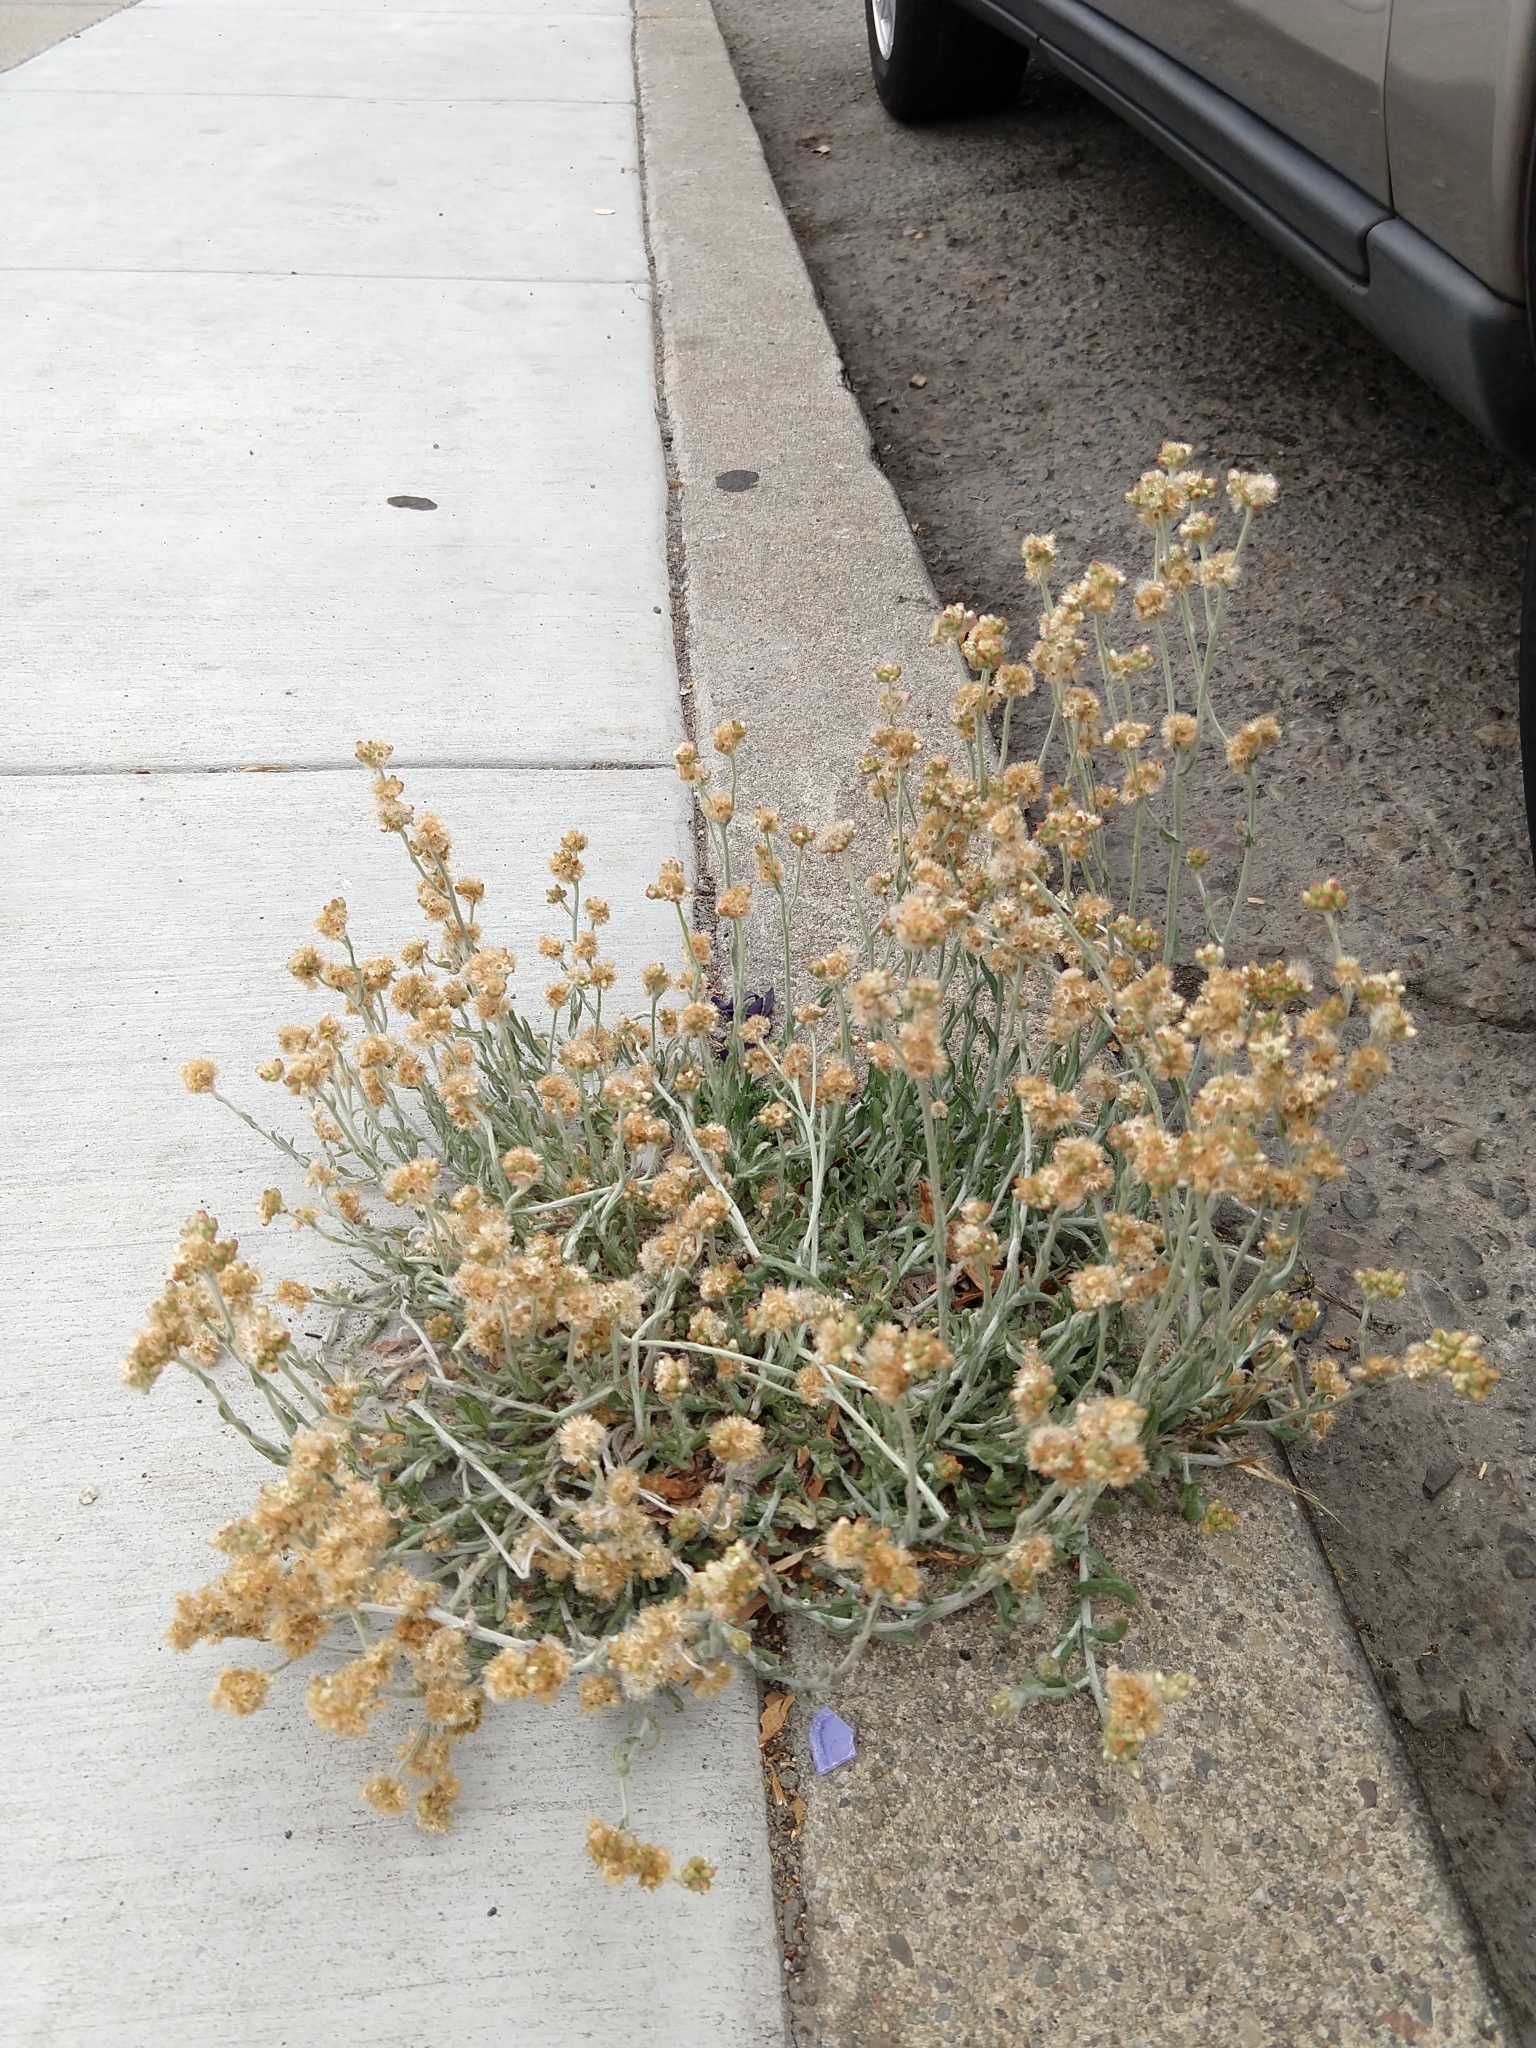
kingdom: Plantae
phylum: Tracheophyta
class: Magnoliopsida
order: Asterales
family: Asteraceae
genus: Helichrysum
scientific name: Helichrysum luteoalbum
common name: Daisy
